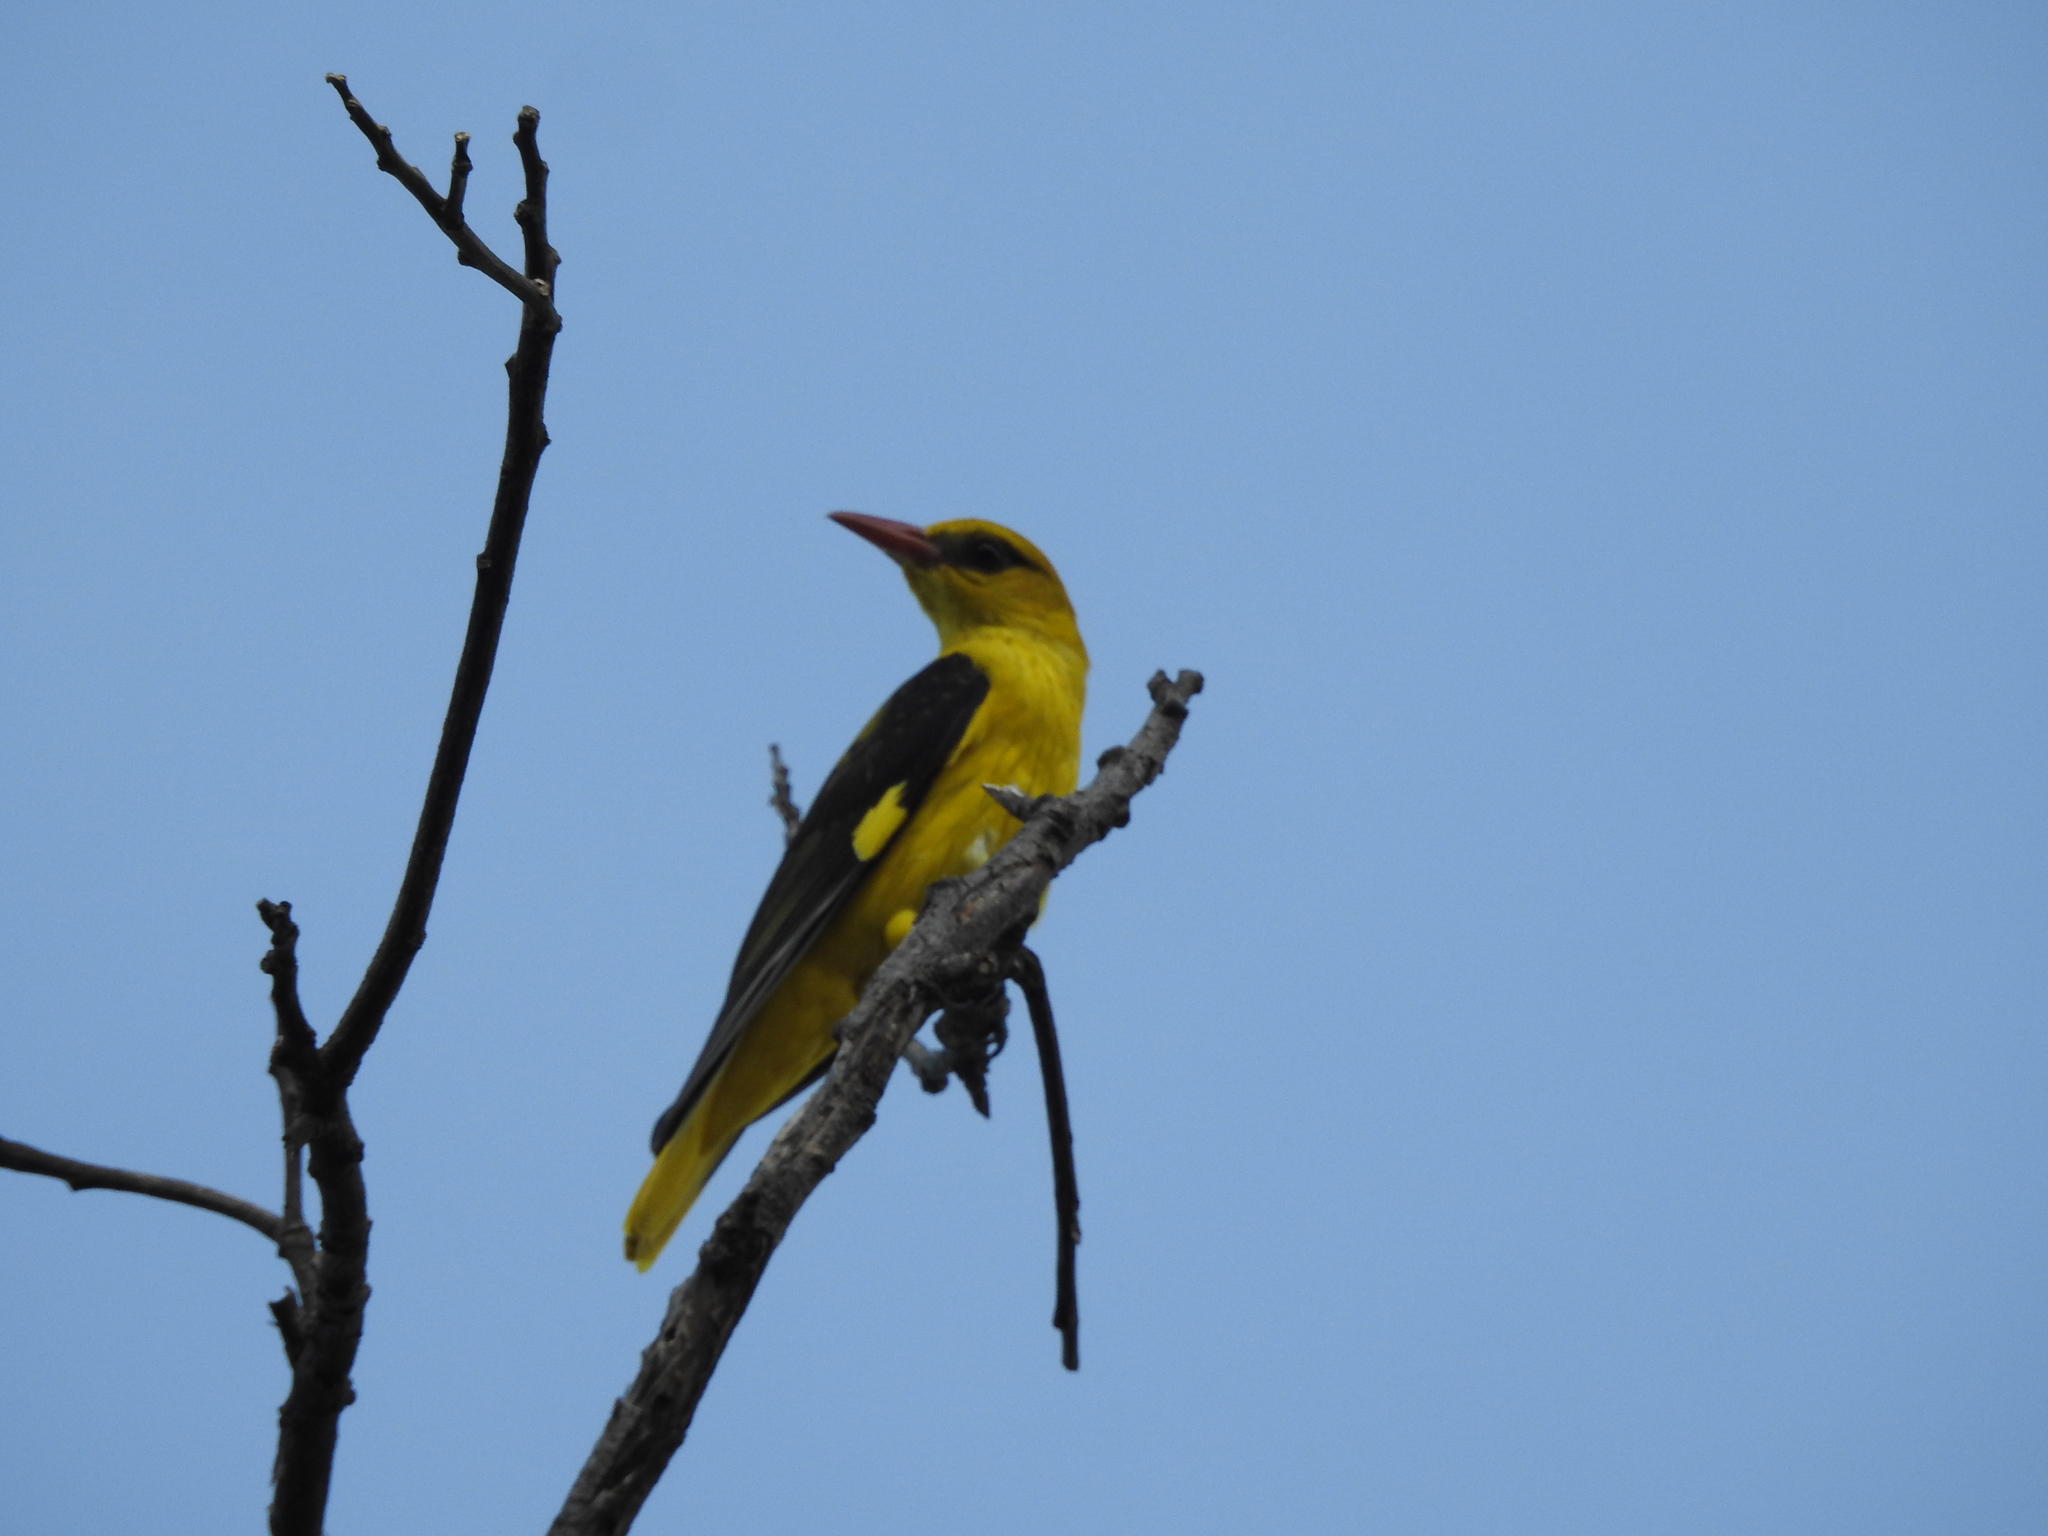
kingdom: Animalia
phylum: Chordata
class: Aves
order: Passeriformes
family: Oriolidae
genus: Oriolus
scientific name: Oriolus kundoo
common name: Indian golden oriole
